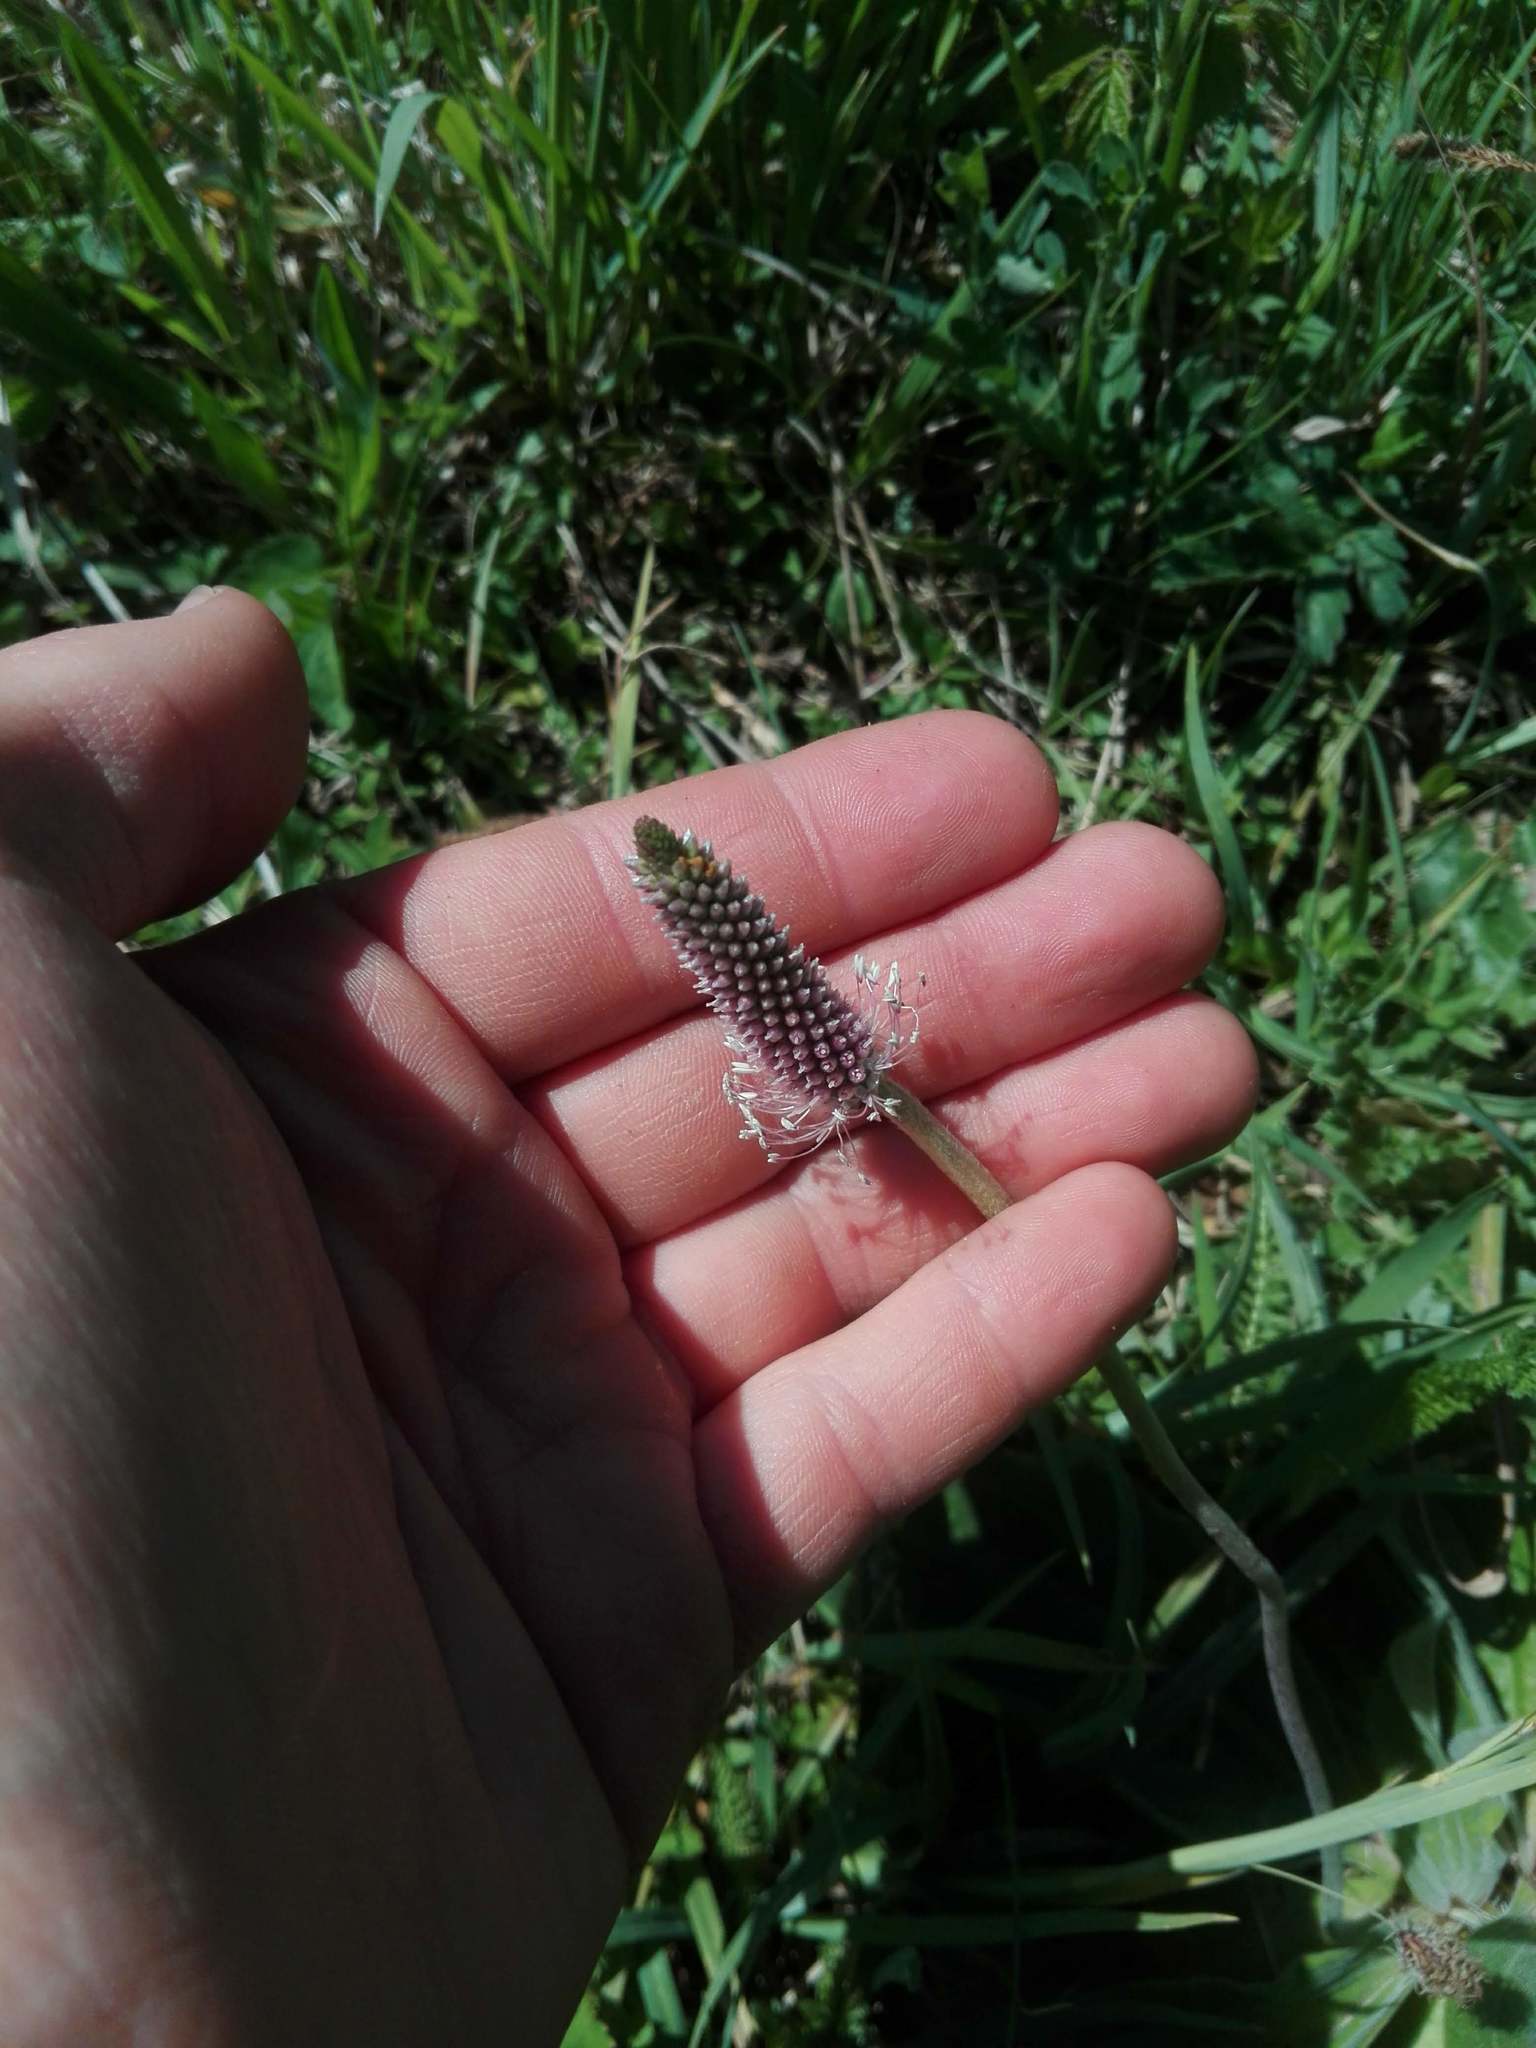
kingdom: Plantae
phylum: Tracheophyta
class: Magnoliopsida
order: Lamiales
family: Plantaginaceae
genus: Plantago
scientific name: Plantago media
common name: Hoary plantain
